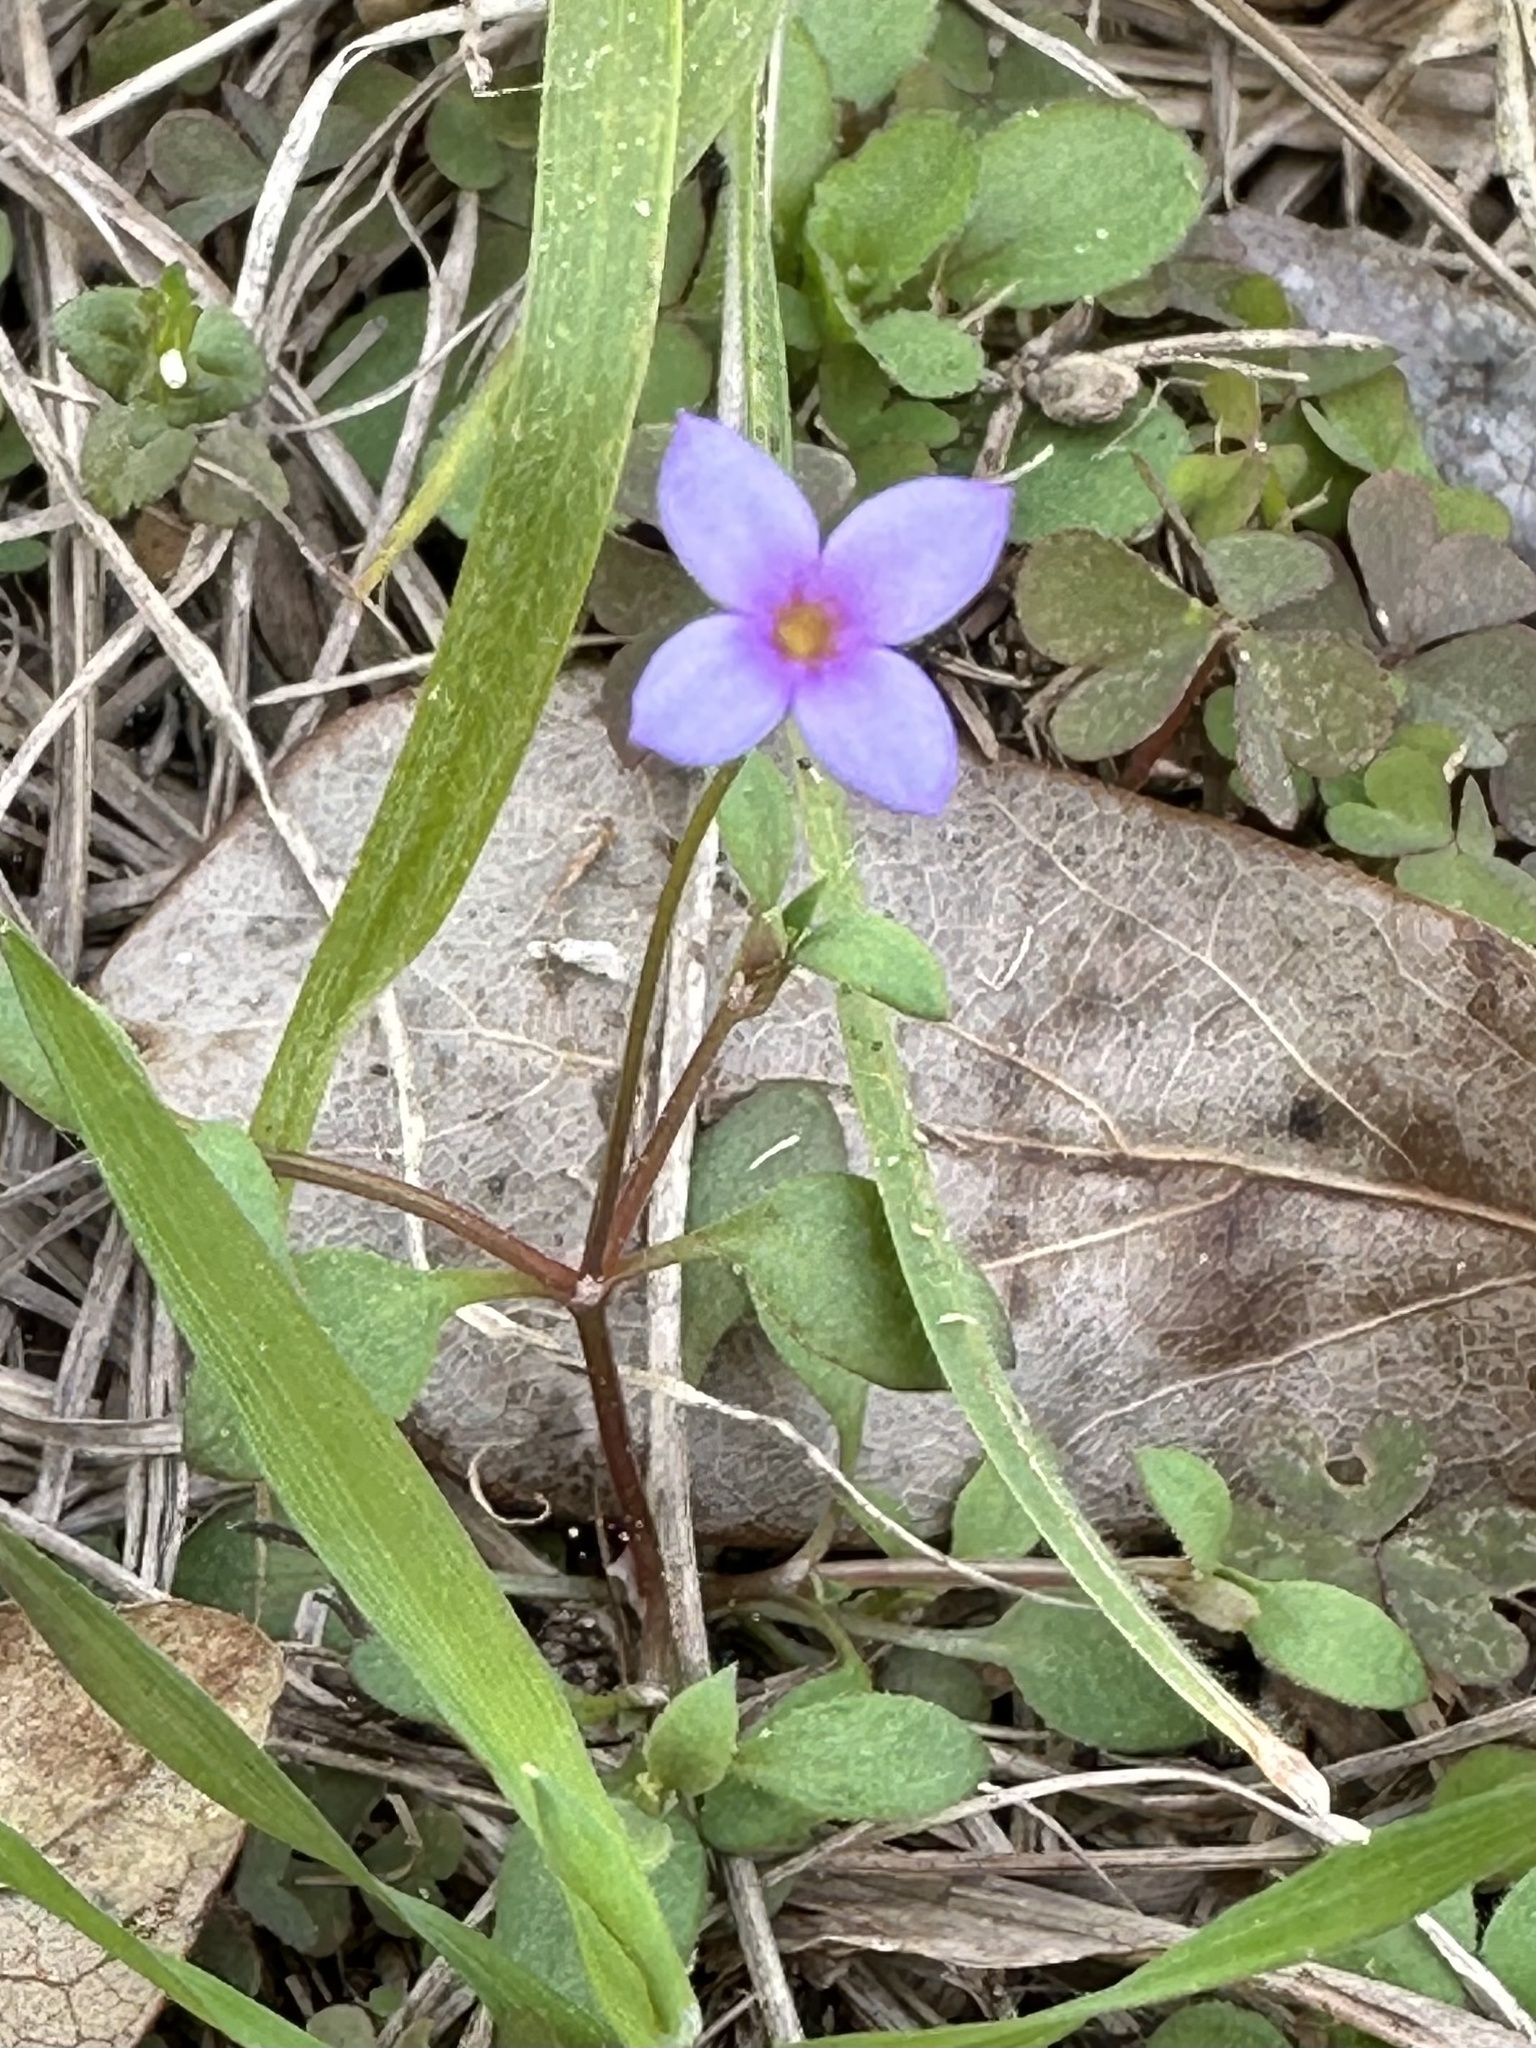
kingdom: Plantae
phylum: Tracheophyta
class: Magnoliopsida
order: Gentianales
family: Rubiaceae
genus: Houstonia
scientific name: Houstonia pusilla
